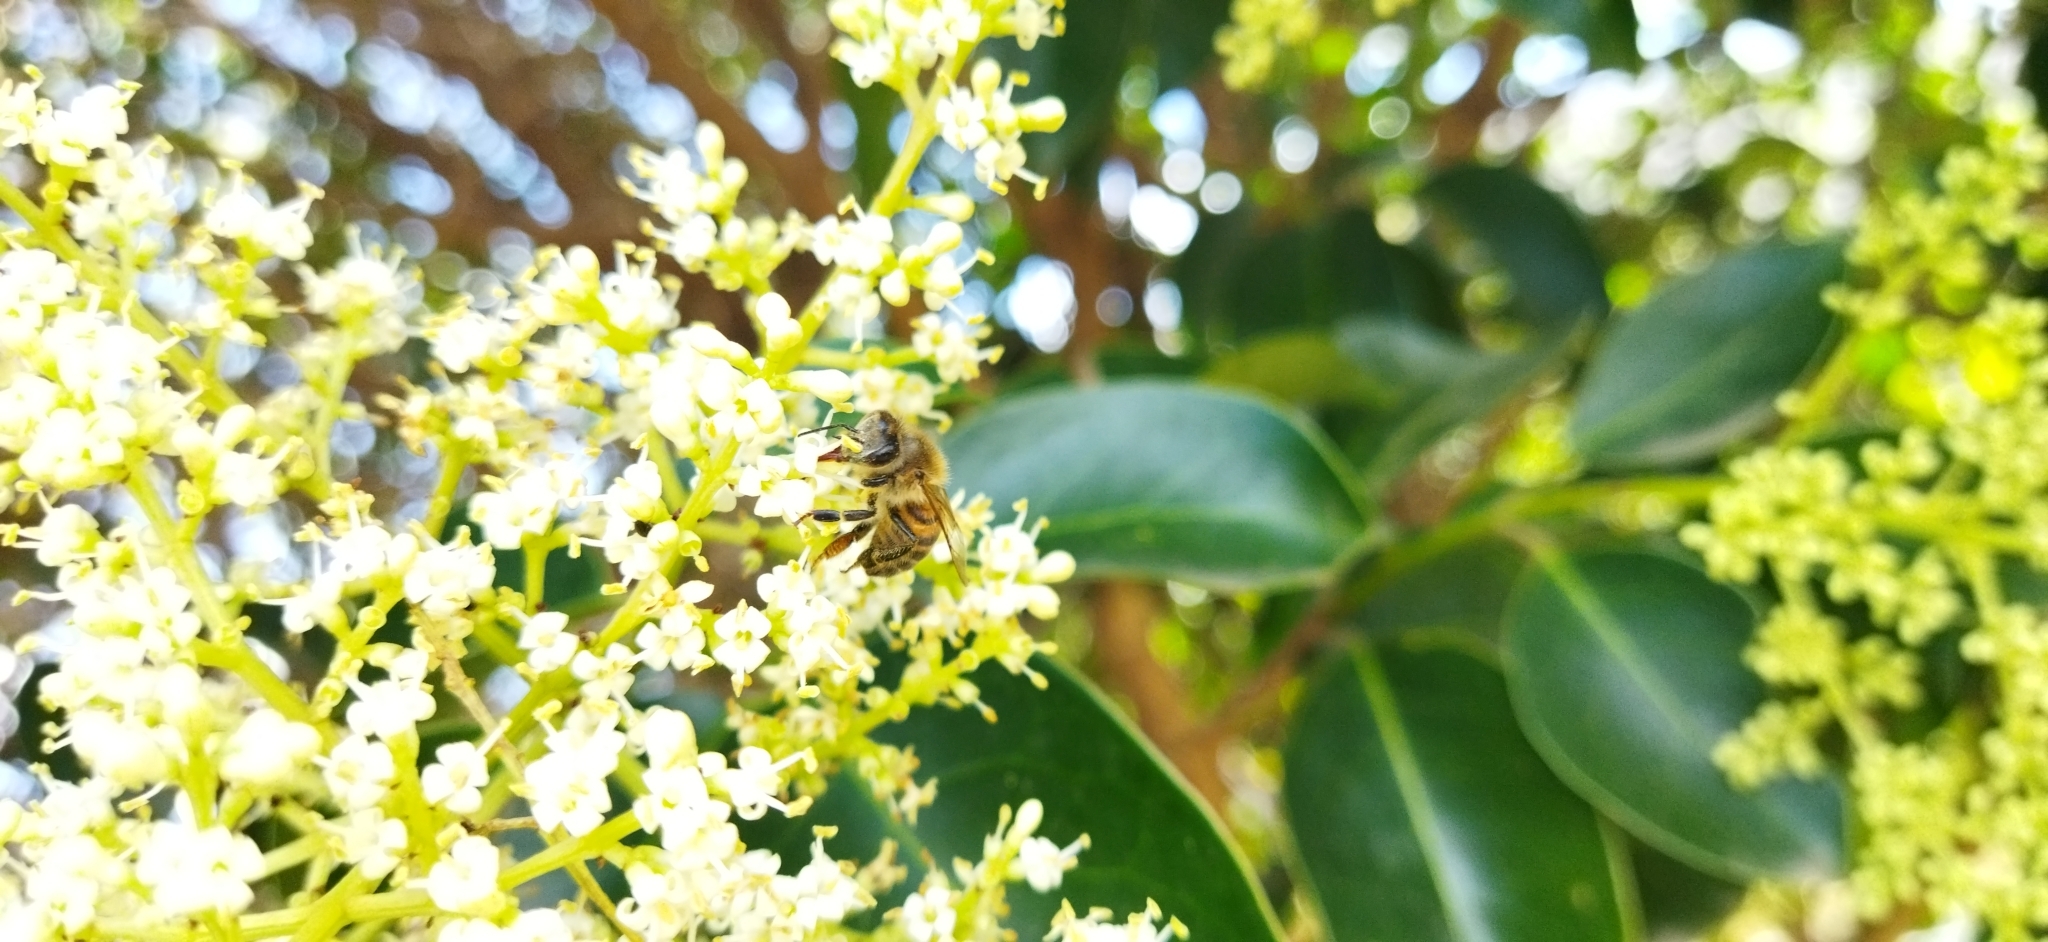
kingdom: Animalia
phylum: Arthropoda
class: Insecta
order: Hymenoptera
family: Apidae
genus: Apis
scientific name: Apis mellifera
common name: Honey bee
